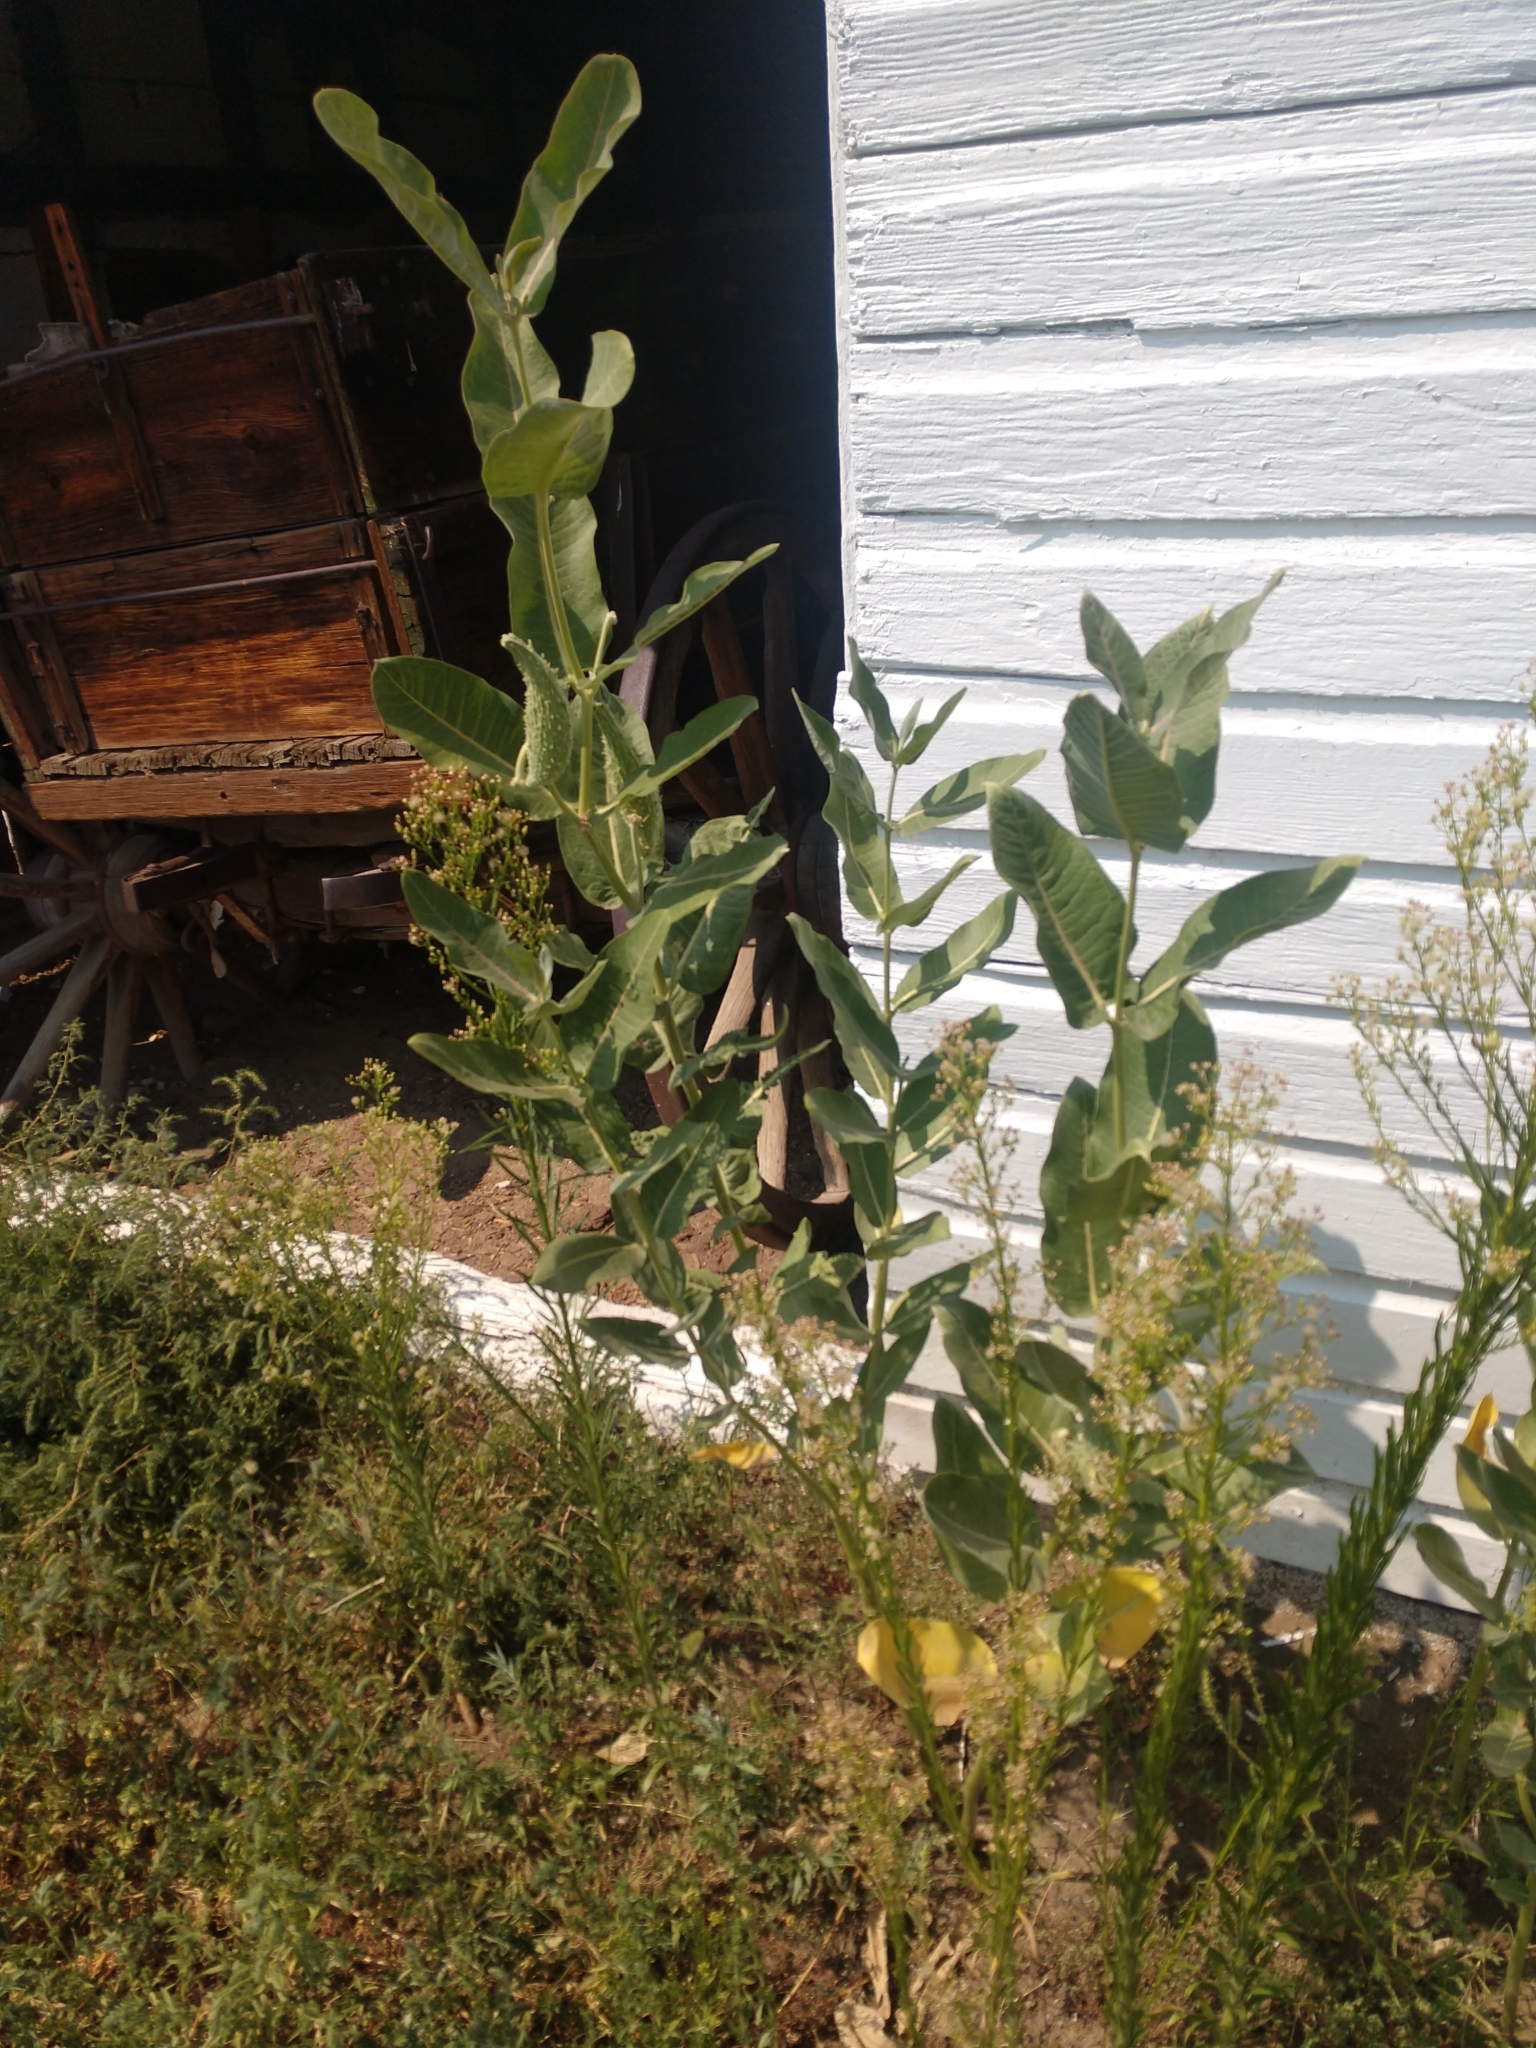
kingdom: Plantae
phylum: Tracheophyta
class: Magnoliopsida
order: Gentianales
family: Apocynaceae
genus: Asclepias
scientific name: Asclepias speciosa
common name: Showy milkweed
